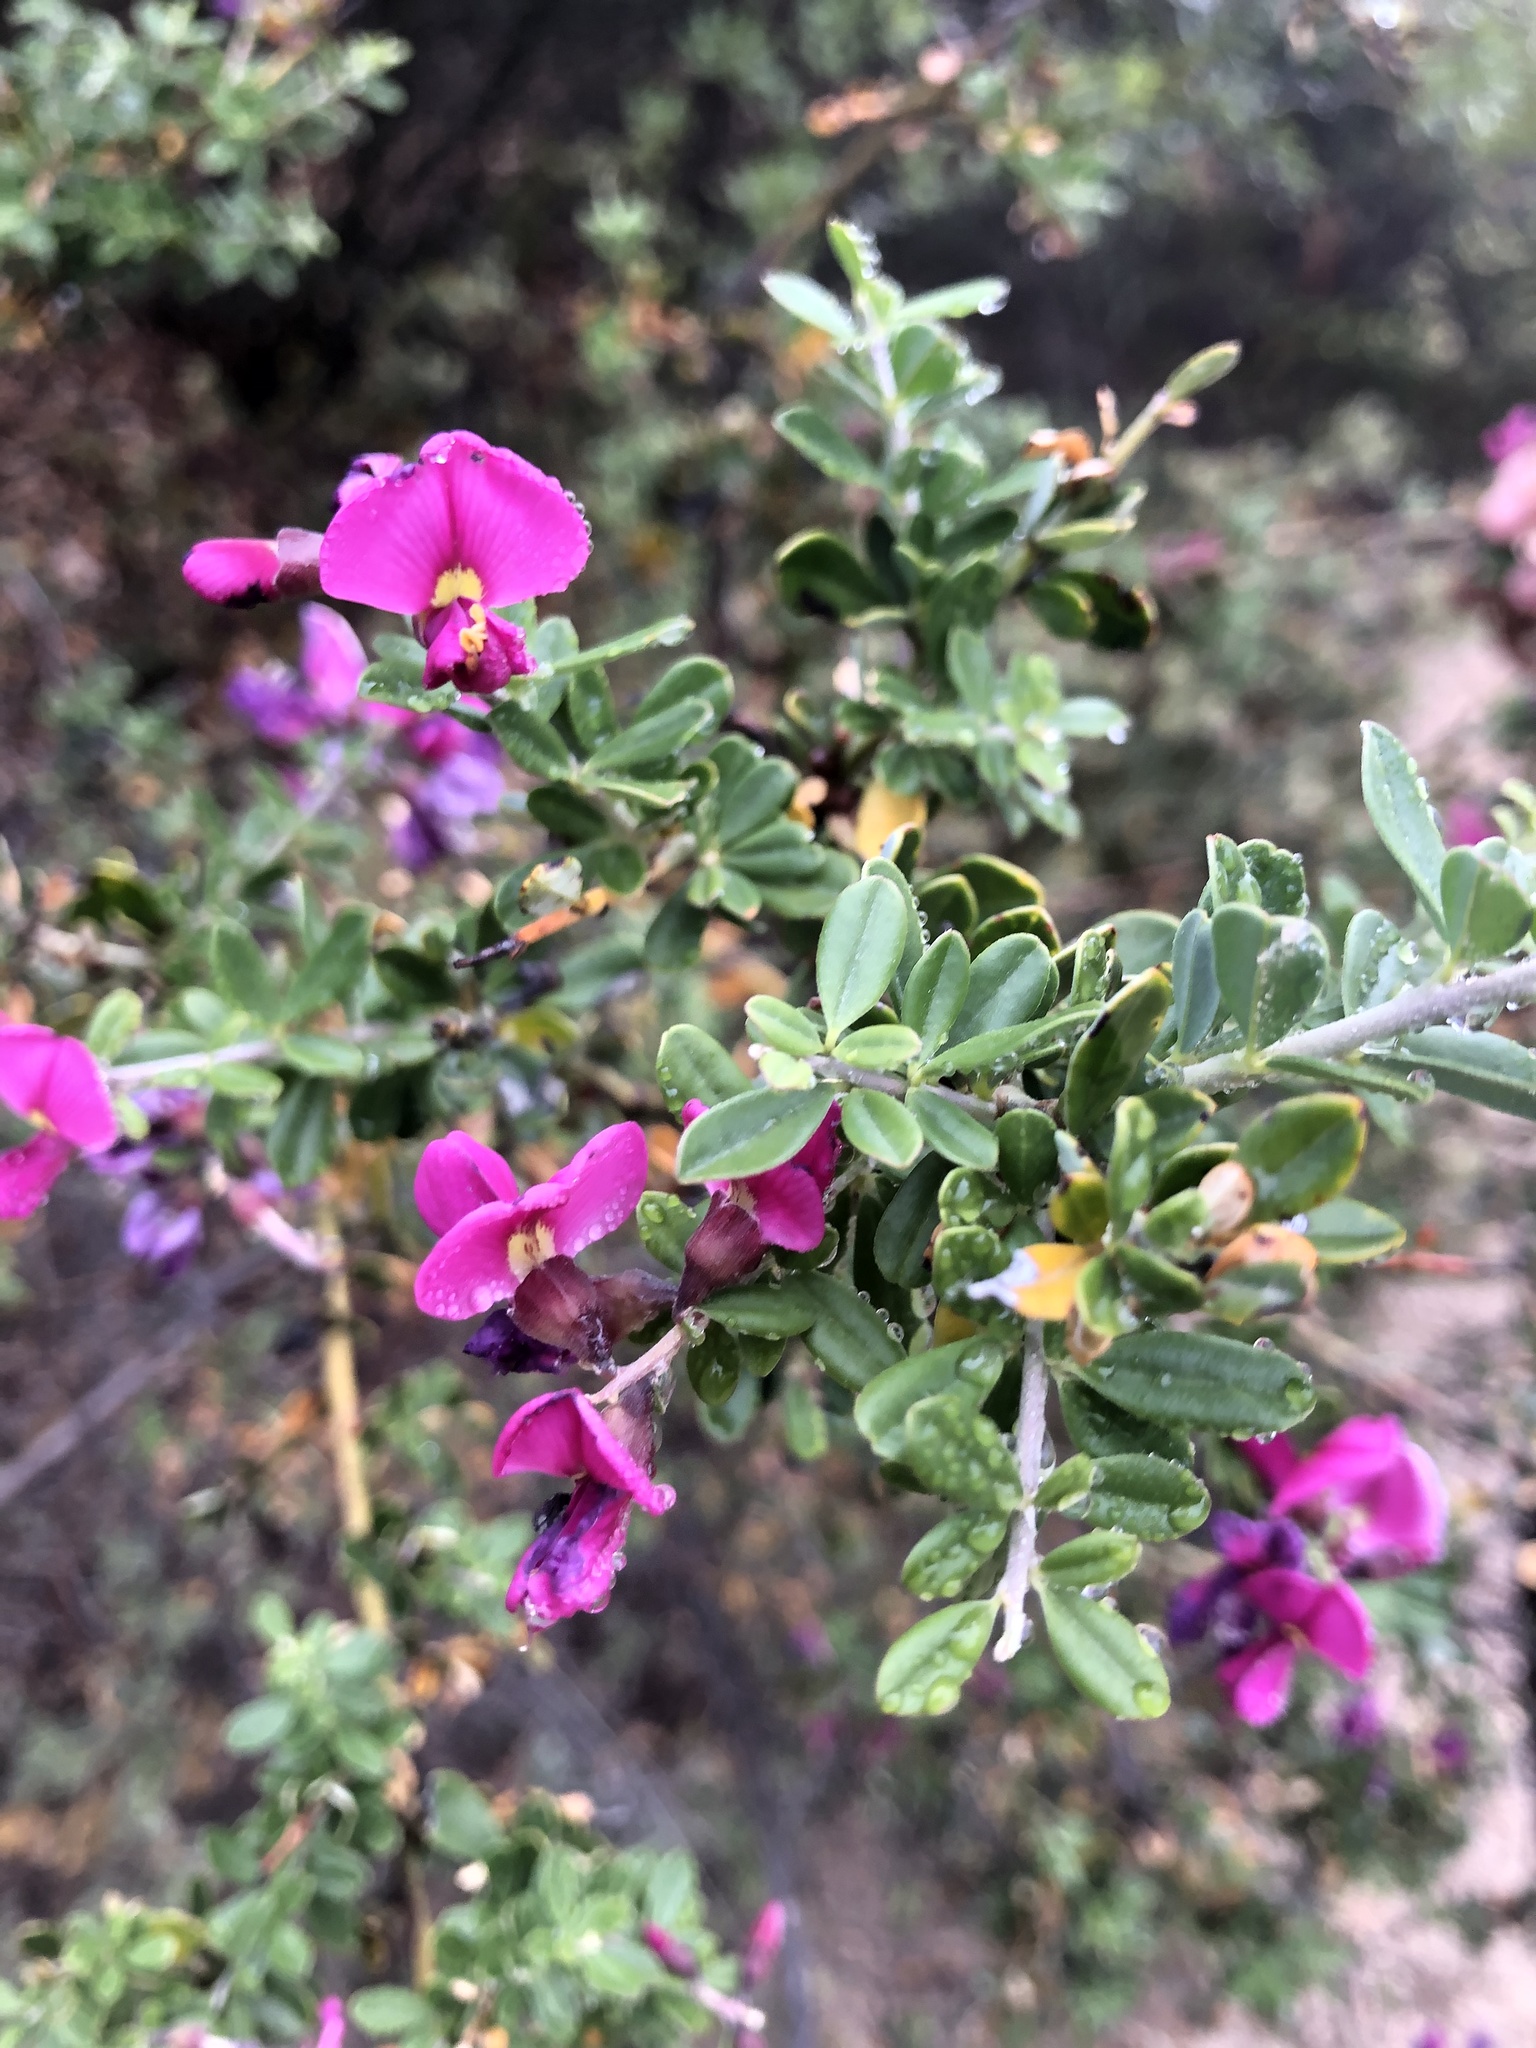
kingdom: Plantae
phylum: Tracheophyta
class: Magnoliopsida
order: Fabales
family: Fabaceae
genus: Pickeringia
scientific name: Pickeringia montana
